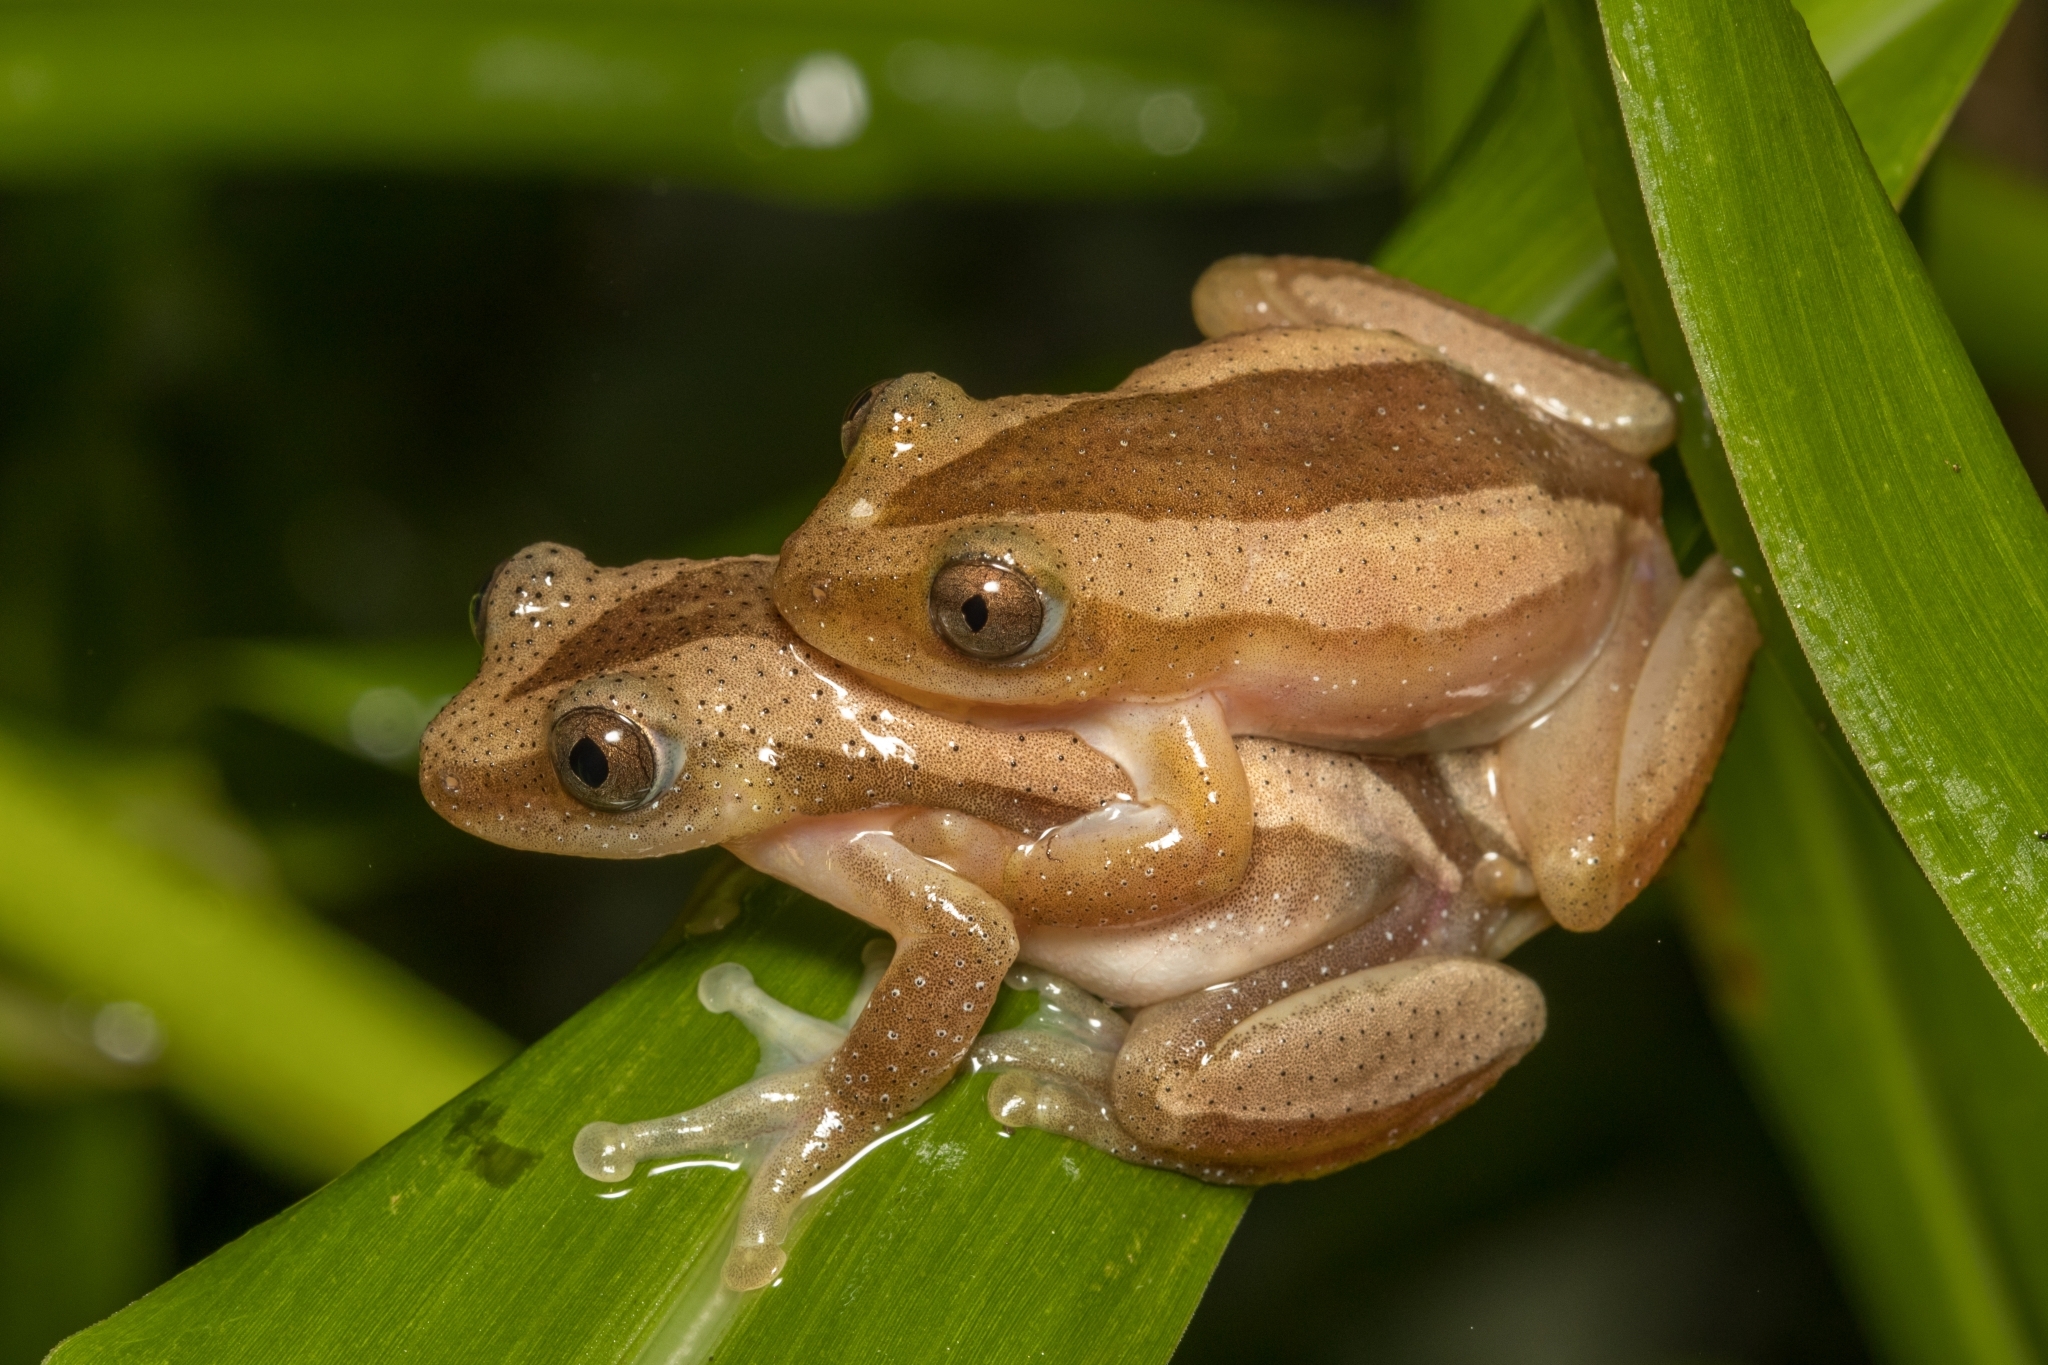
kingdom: Animalia
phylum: Chordata
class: Amphibia
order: Anura
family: Hyperoliidae
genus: Afrixalus
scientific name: Afrixalus fornasini
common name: Fornasini's spiny reed frog
